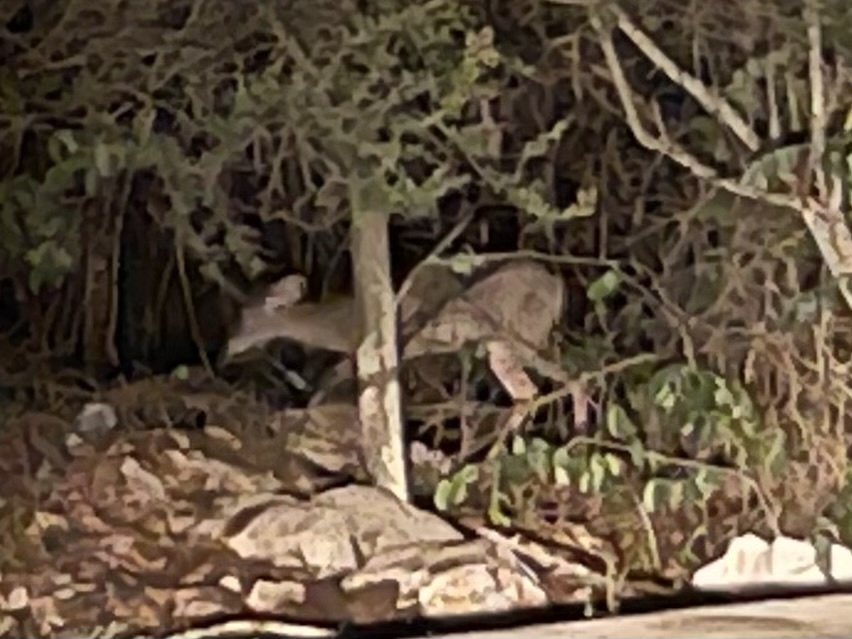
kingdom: Animalia
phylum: Chordata
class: Mammalia
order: Artiodactyla
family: Cervidae
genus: Odocoileus
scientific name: Odocoileus virginianus
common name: White-tailed deer
